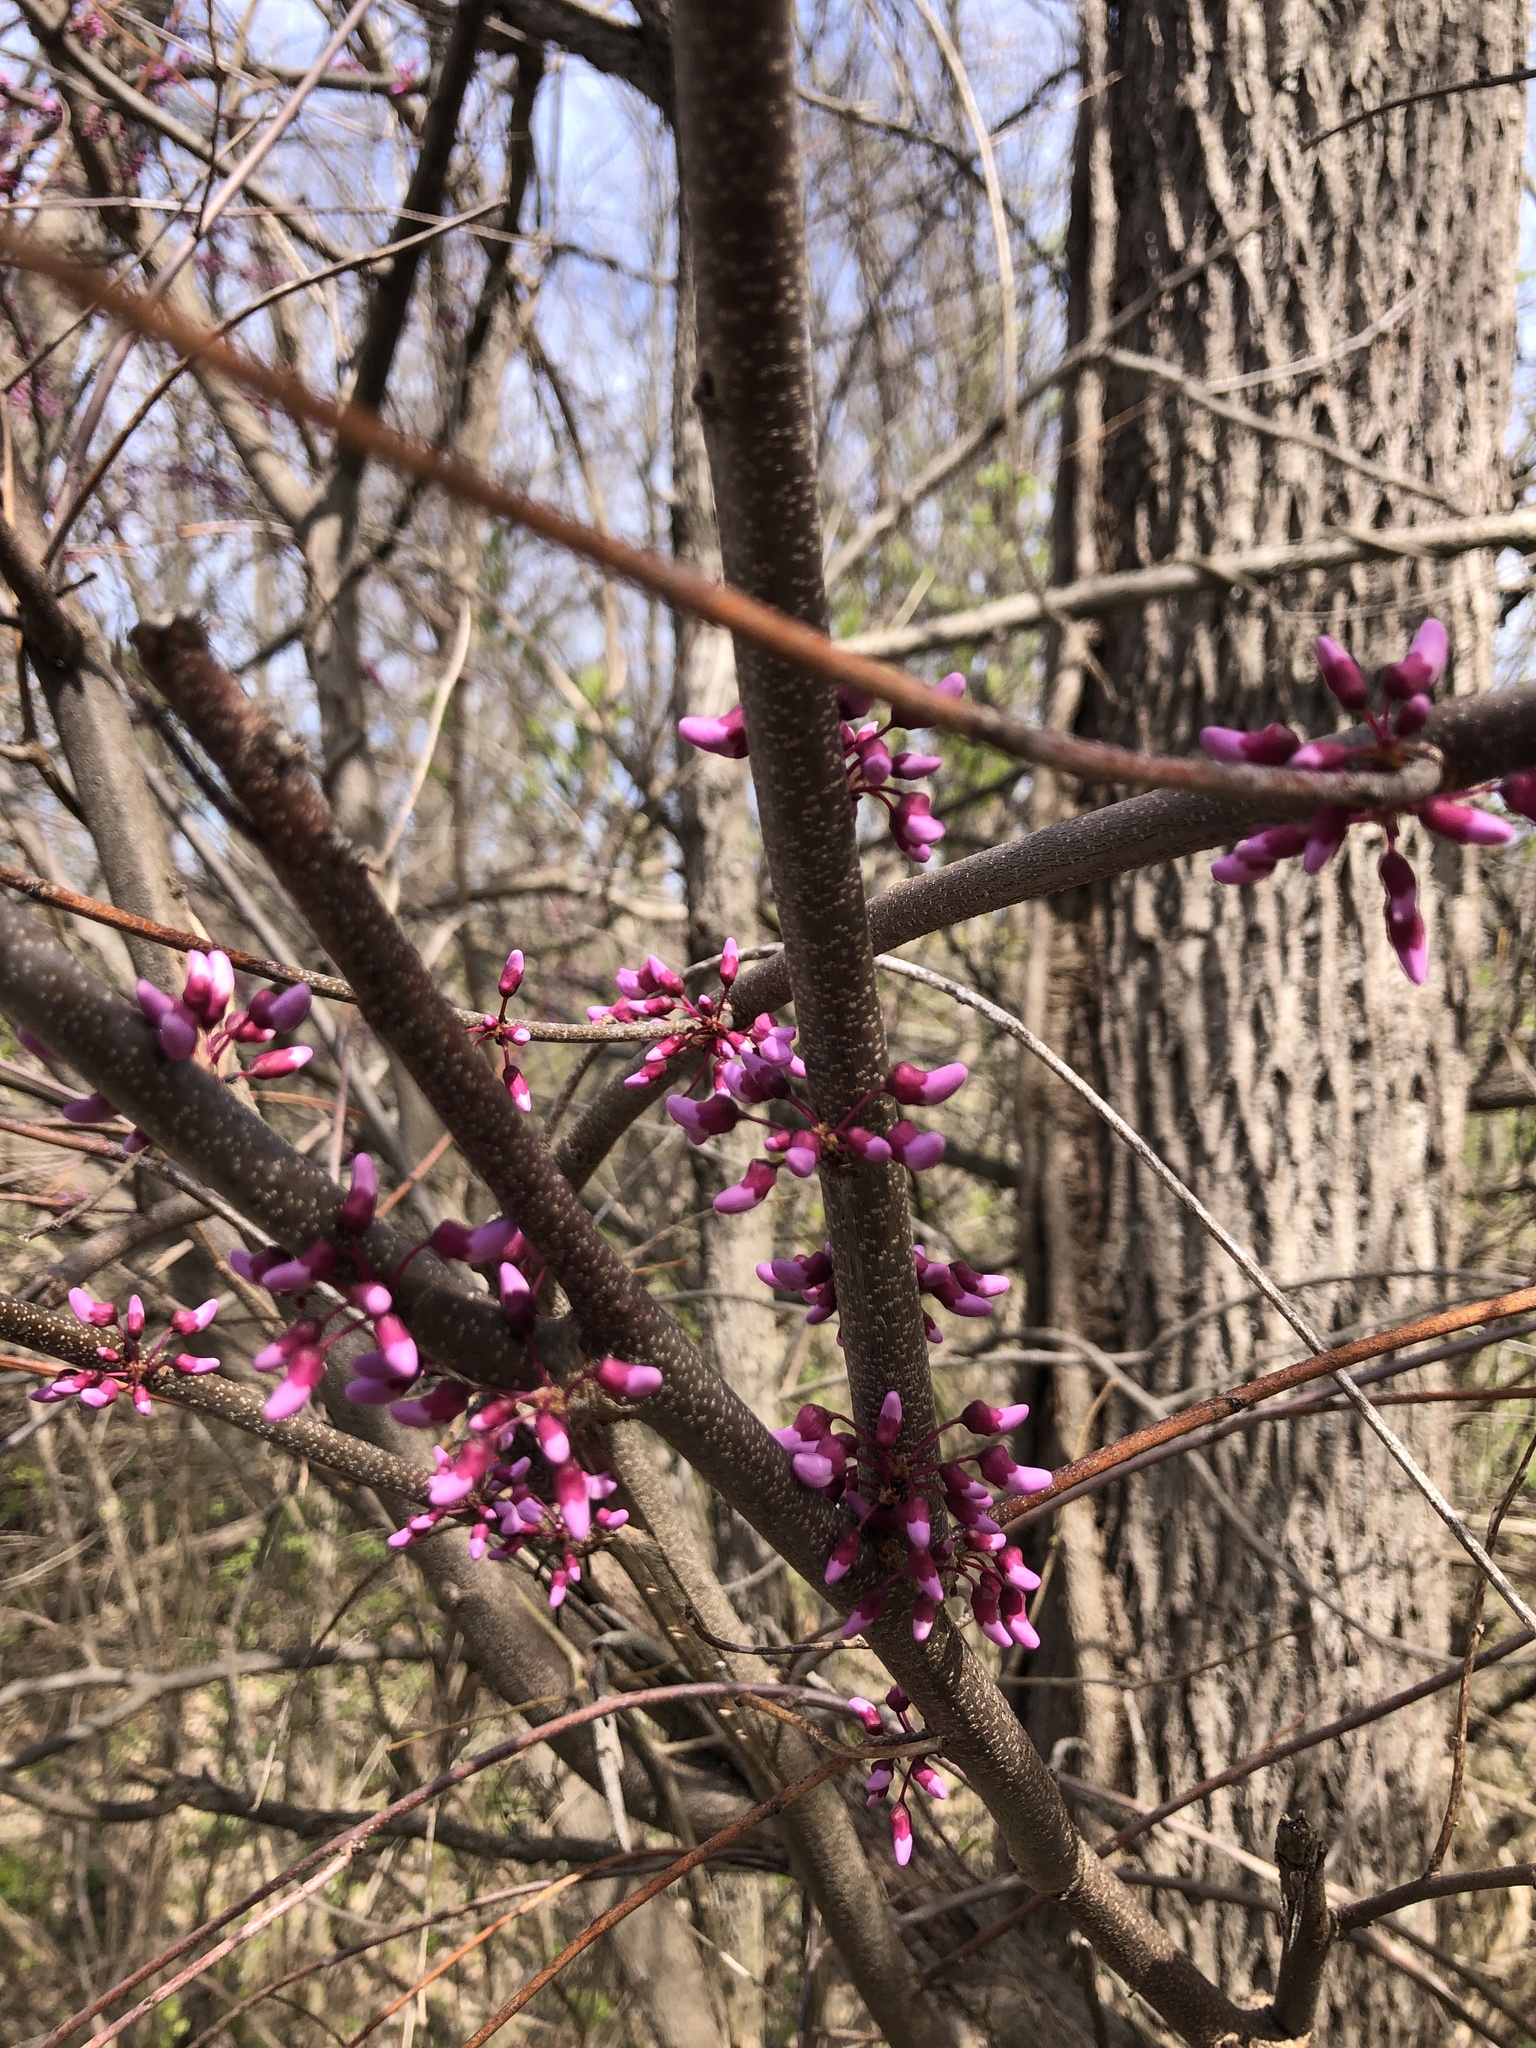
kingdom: Plantae
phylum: Tracheophyta
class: Magnoliopsida
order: Fabales
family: Fabaceae
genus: Cercis
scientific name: Cercis canadensis
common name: Eastern redbud
